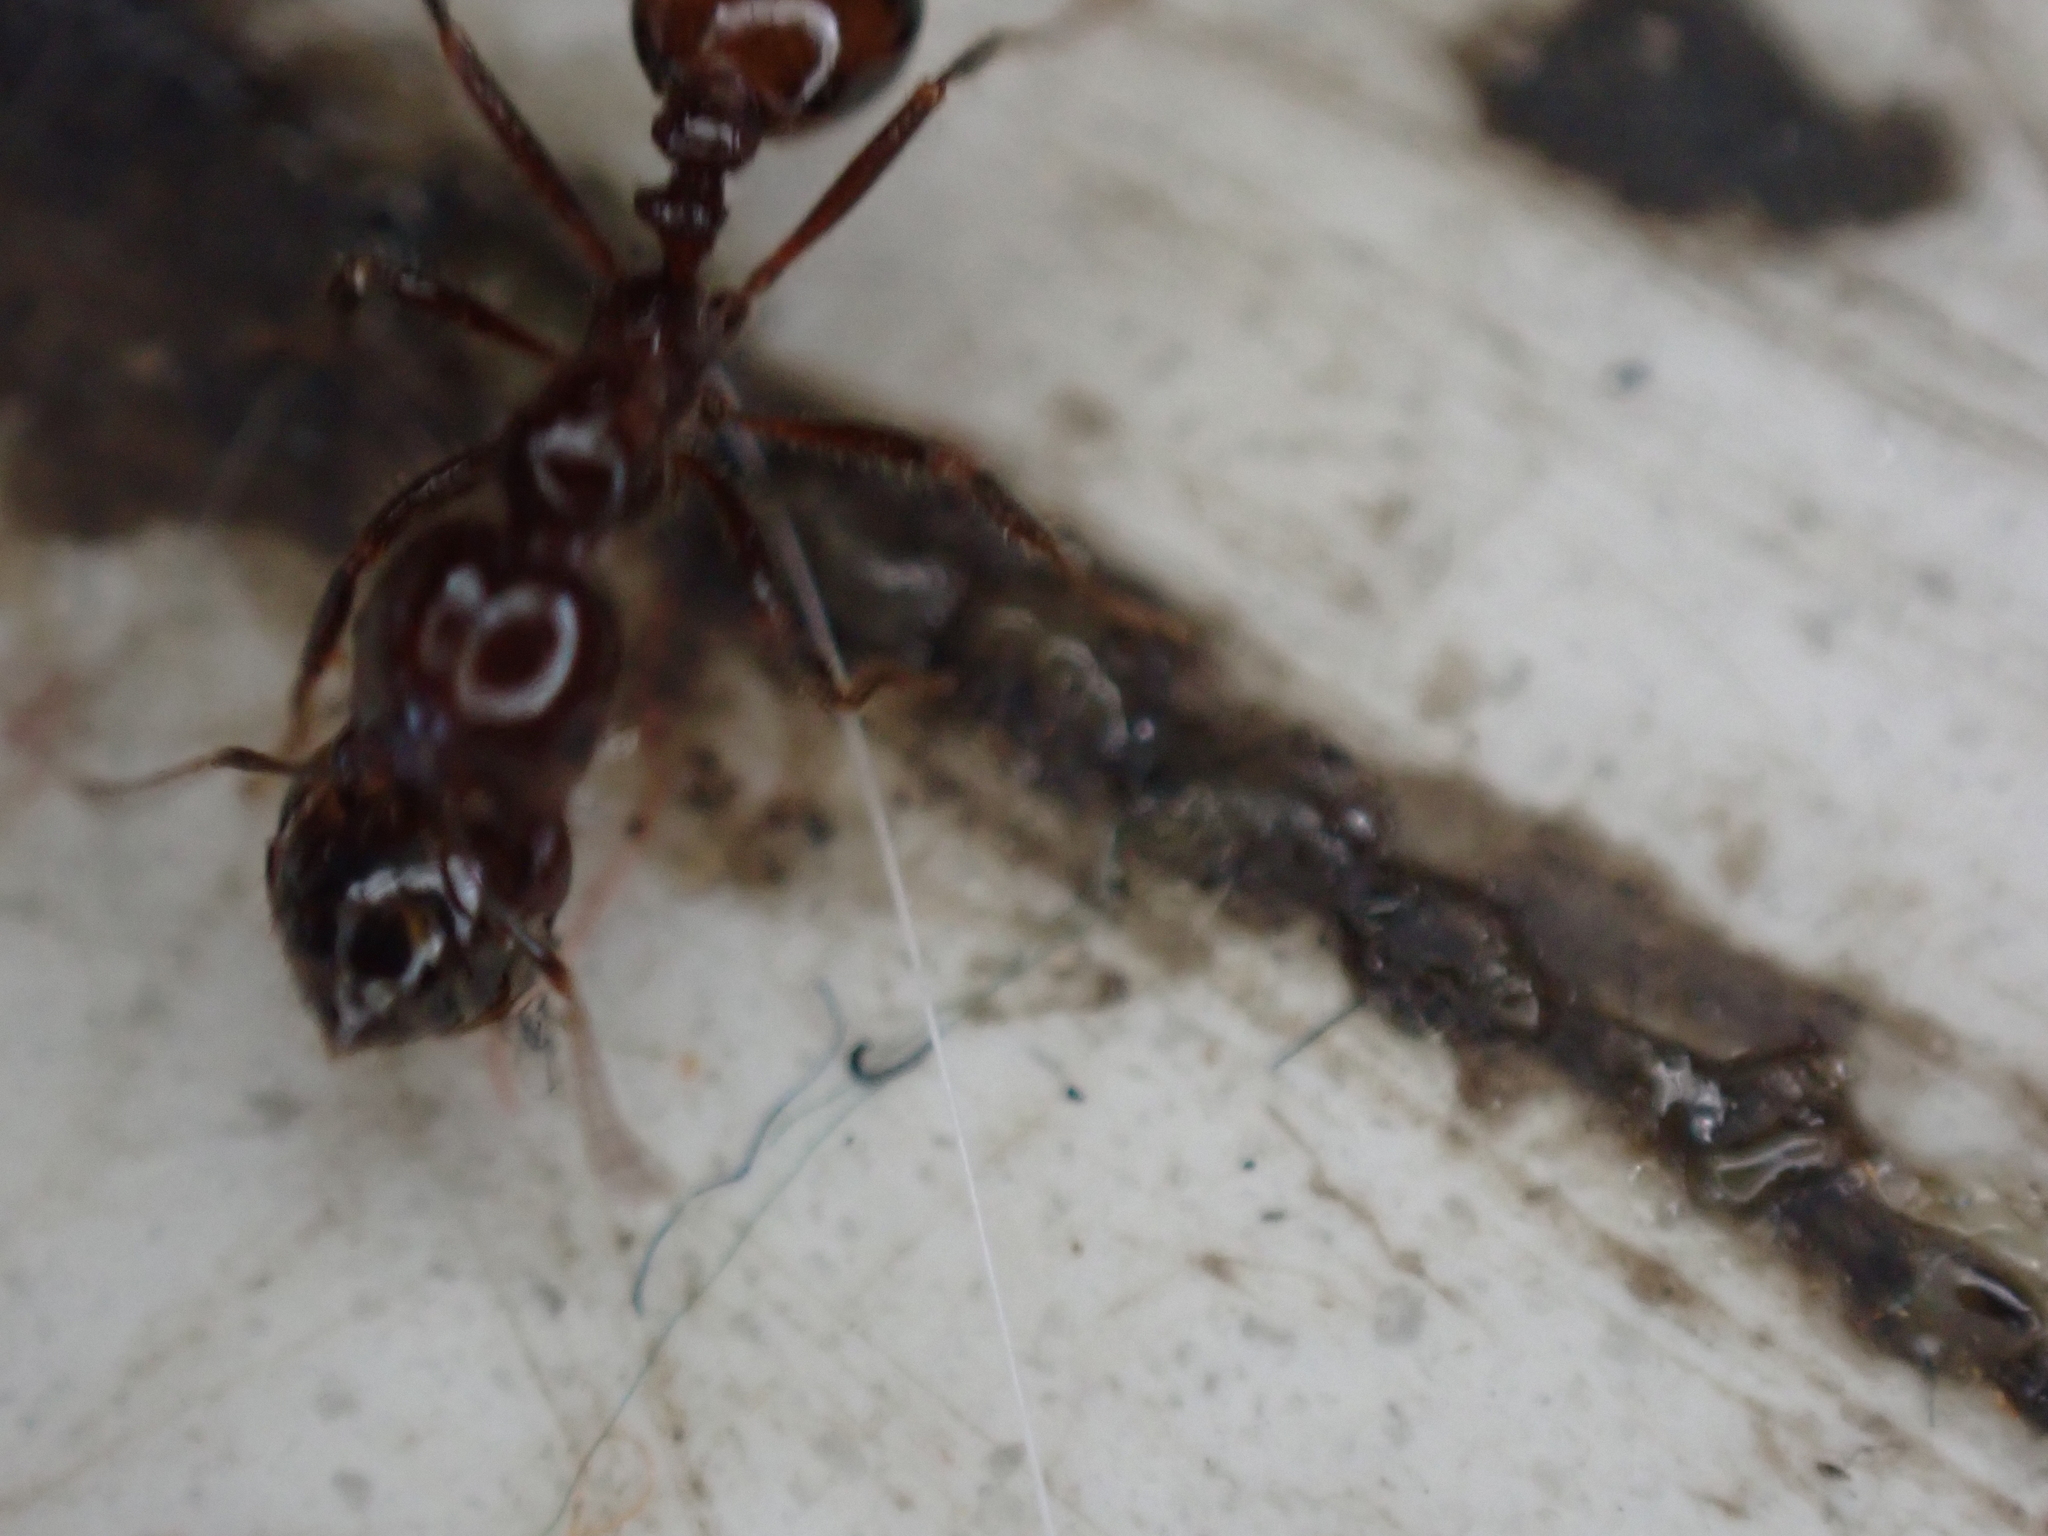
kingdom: Animalia
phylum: Arthropoda
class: Insecta
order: Hymenoptera
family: Formicidae
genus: Solenopsis
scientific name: Solenopsis
